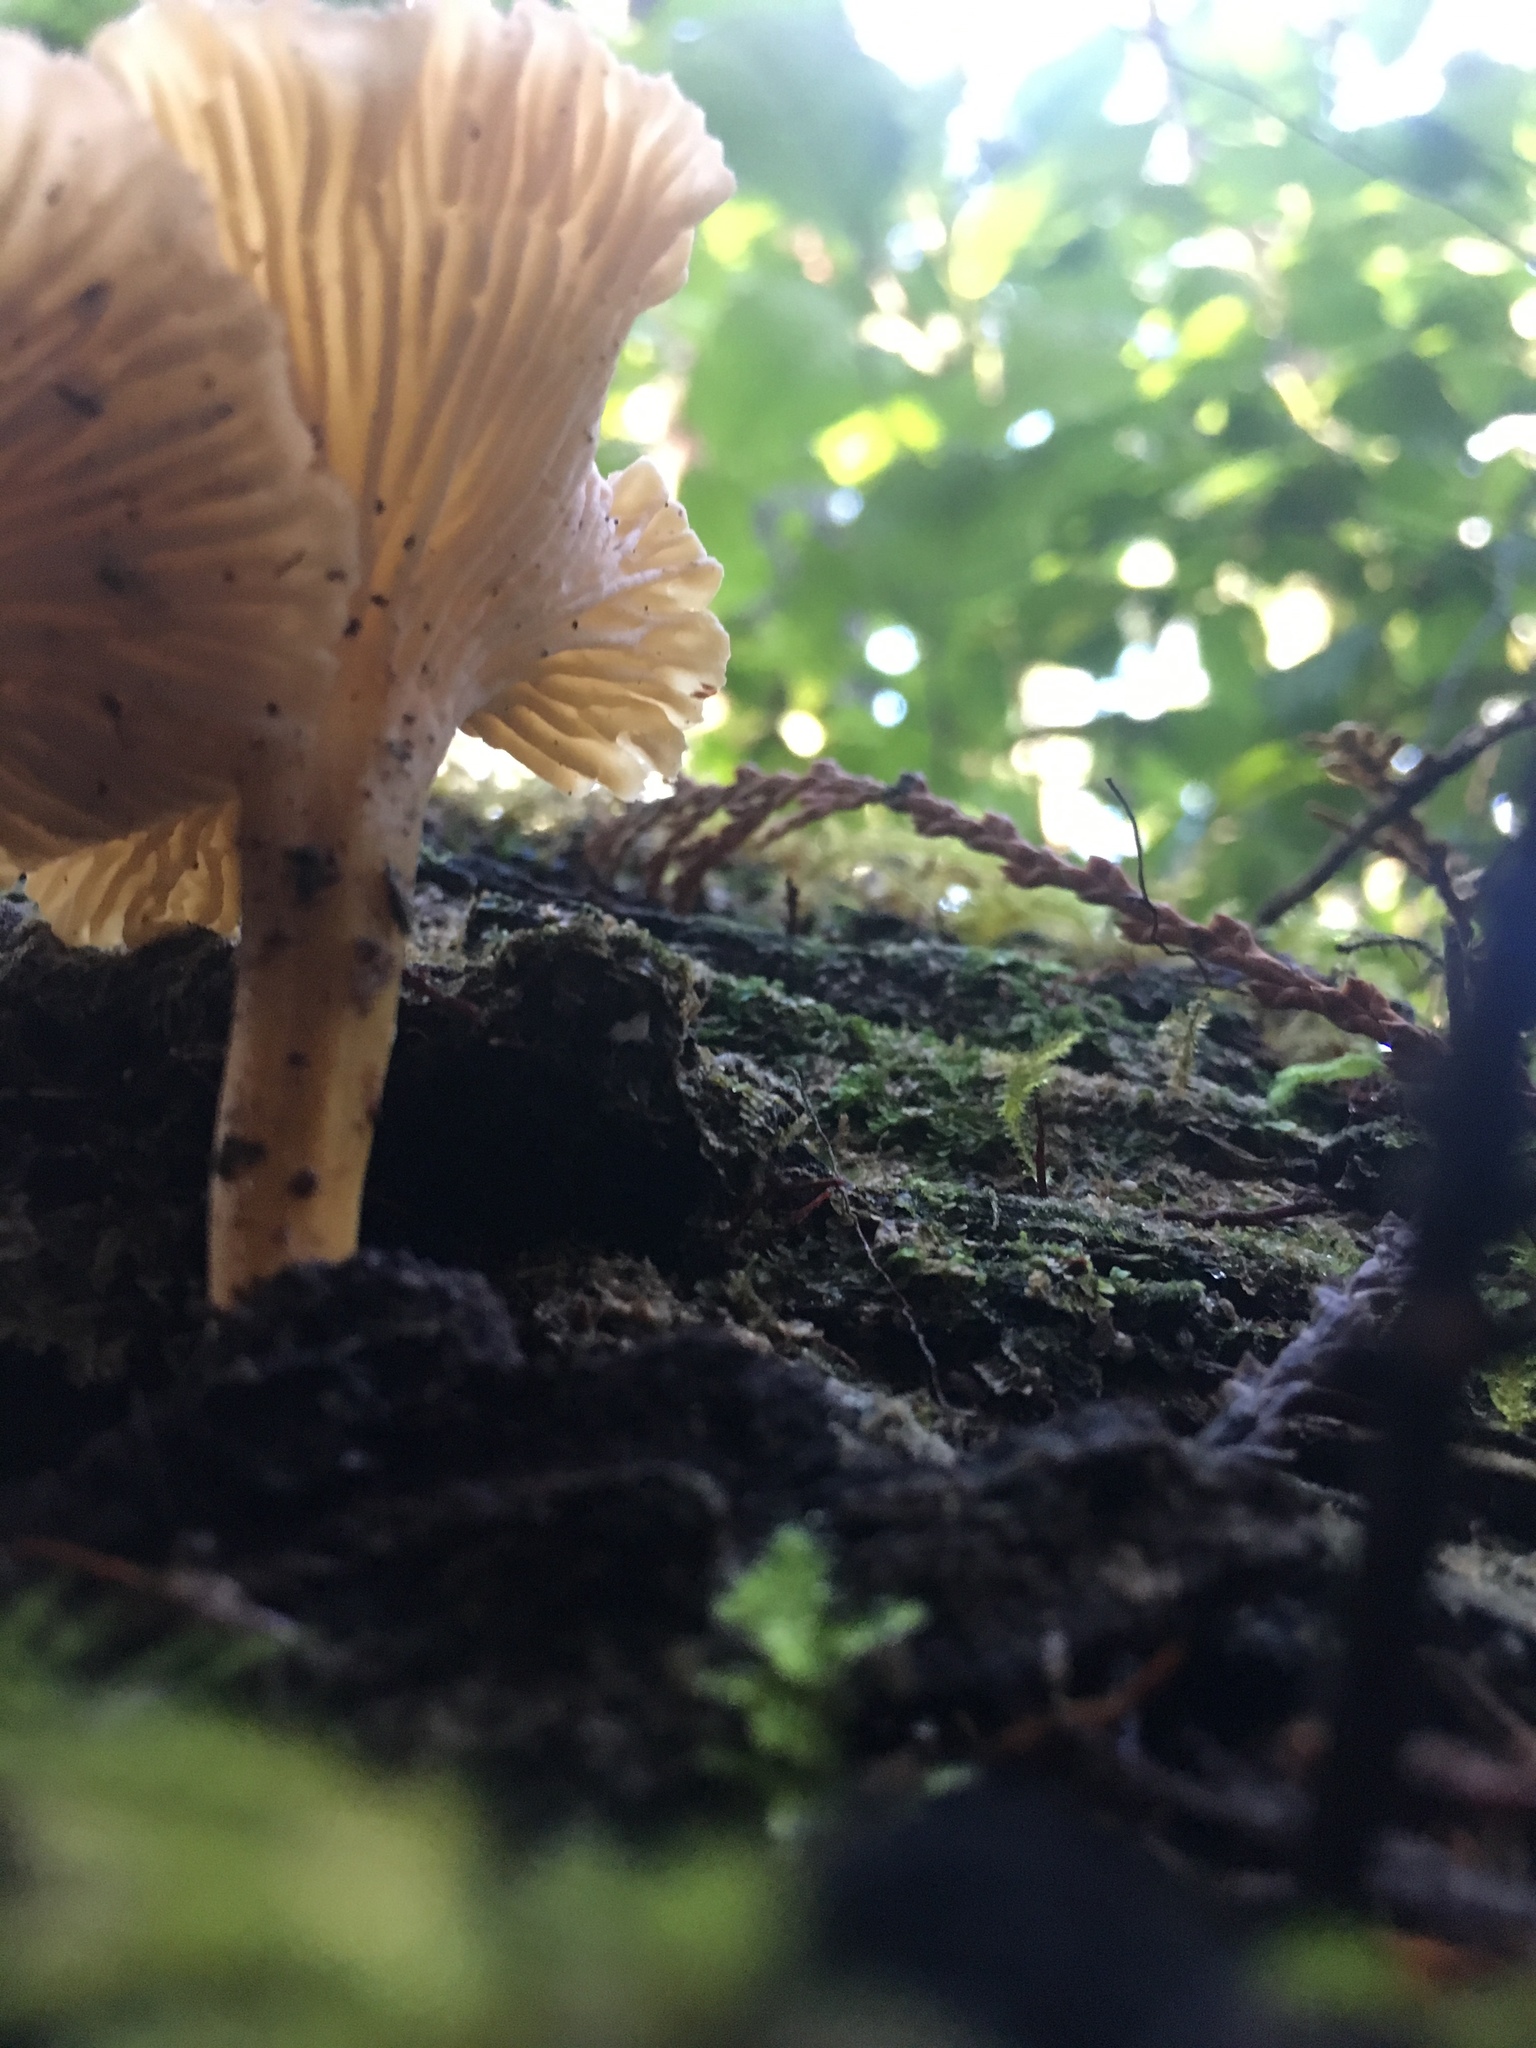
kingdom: Fungi
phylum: Basidiomycota
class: Agaricomycetes
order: Cantharellales
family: Hydnaceae
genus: Craterellus
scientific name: Craterellus tubaeformis
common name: Yellowfoot
